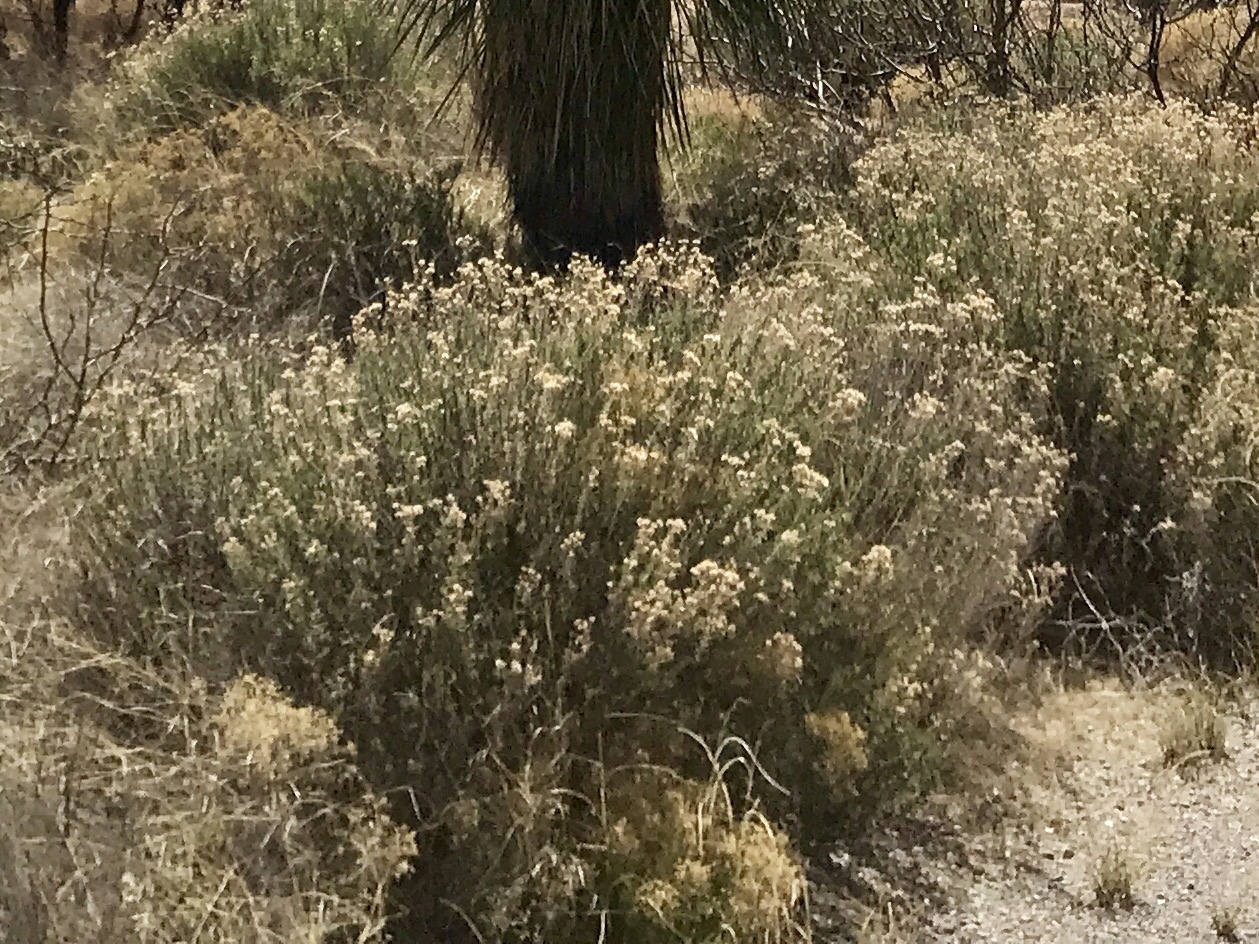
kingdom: Plantae
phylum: Tracheophyta
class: Magnoliopsida
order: Asterales
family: Asteraceae
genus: Ericameria
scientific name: Ericameria nauseosa
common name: Rubber rabbitbrush
